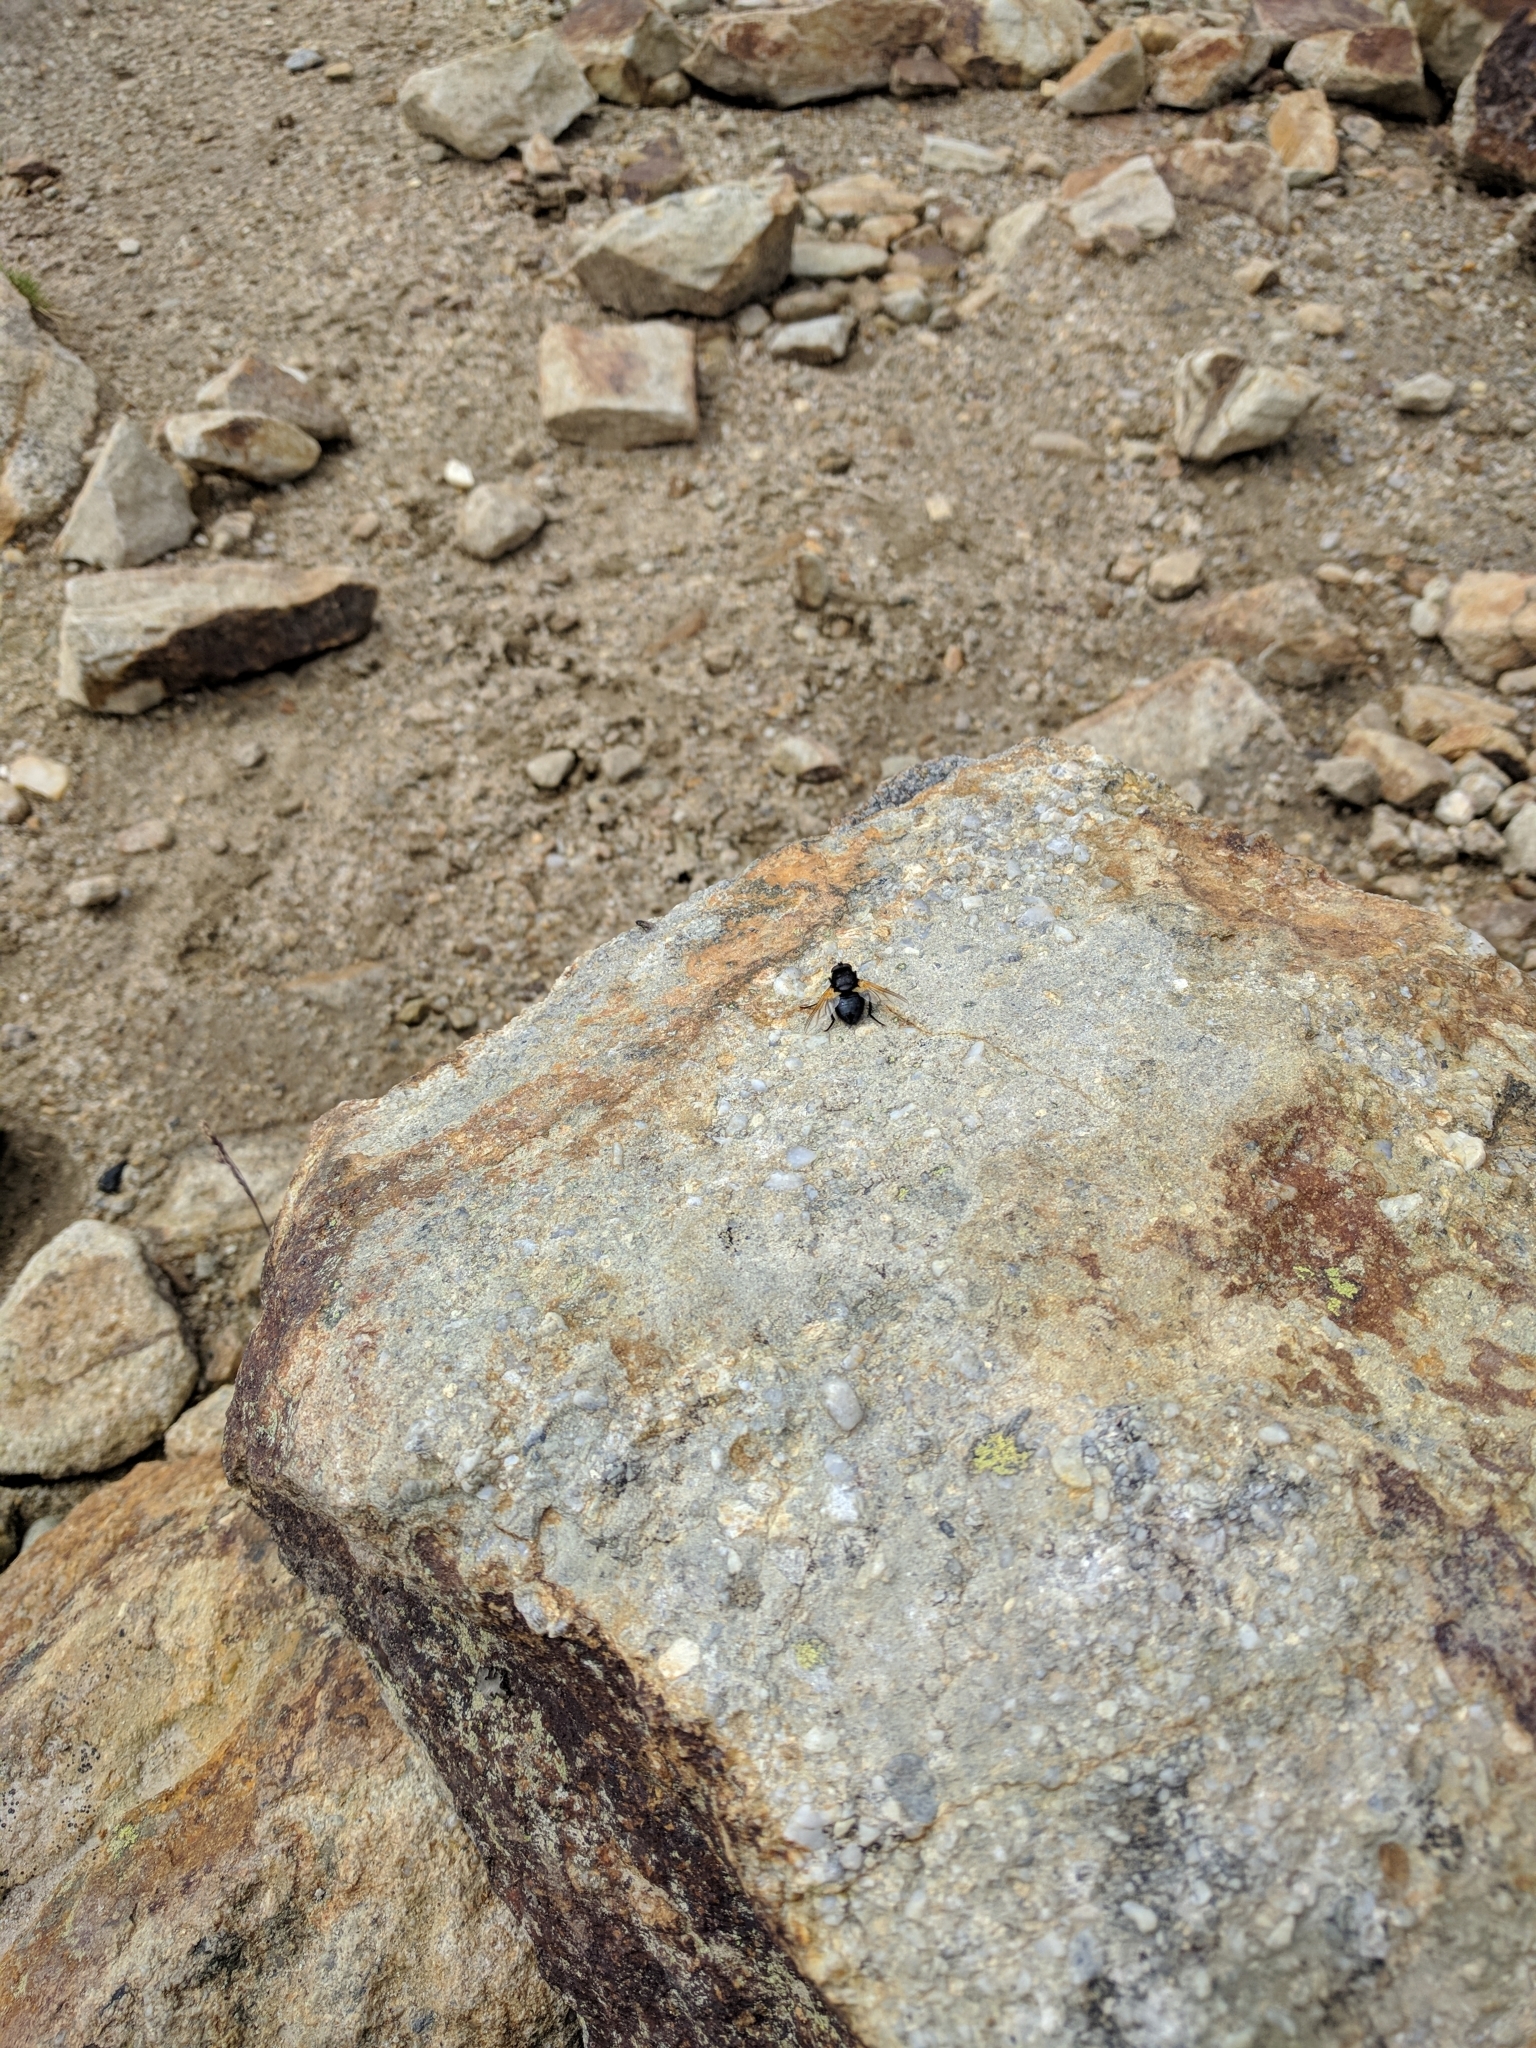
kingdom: Animalia
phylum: Arthropoda
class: Insecta
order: Diptera
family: Muscidae
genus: Mesembrina
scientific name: Mesembrina meridiana
